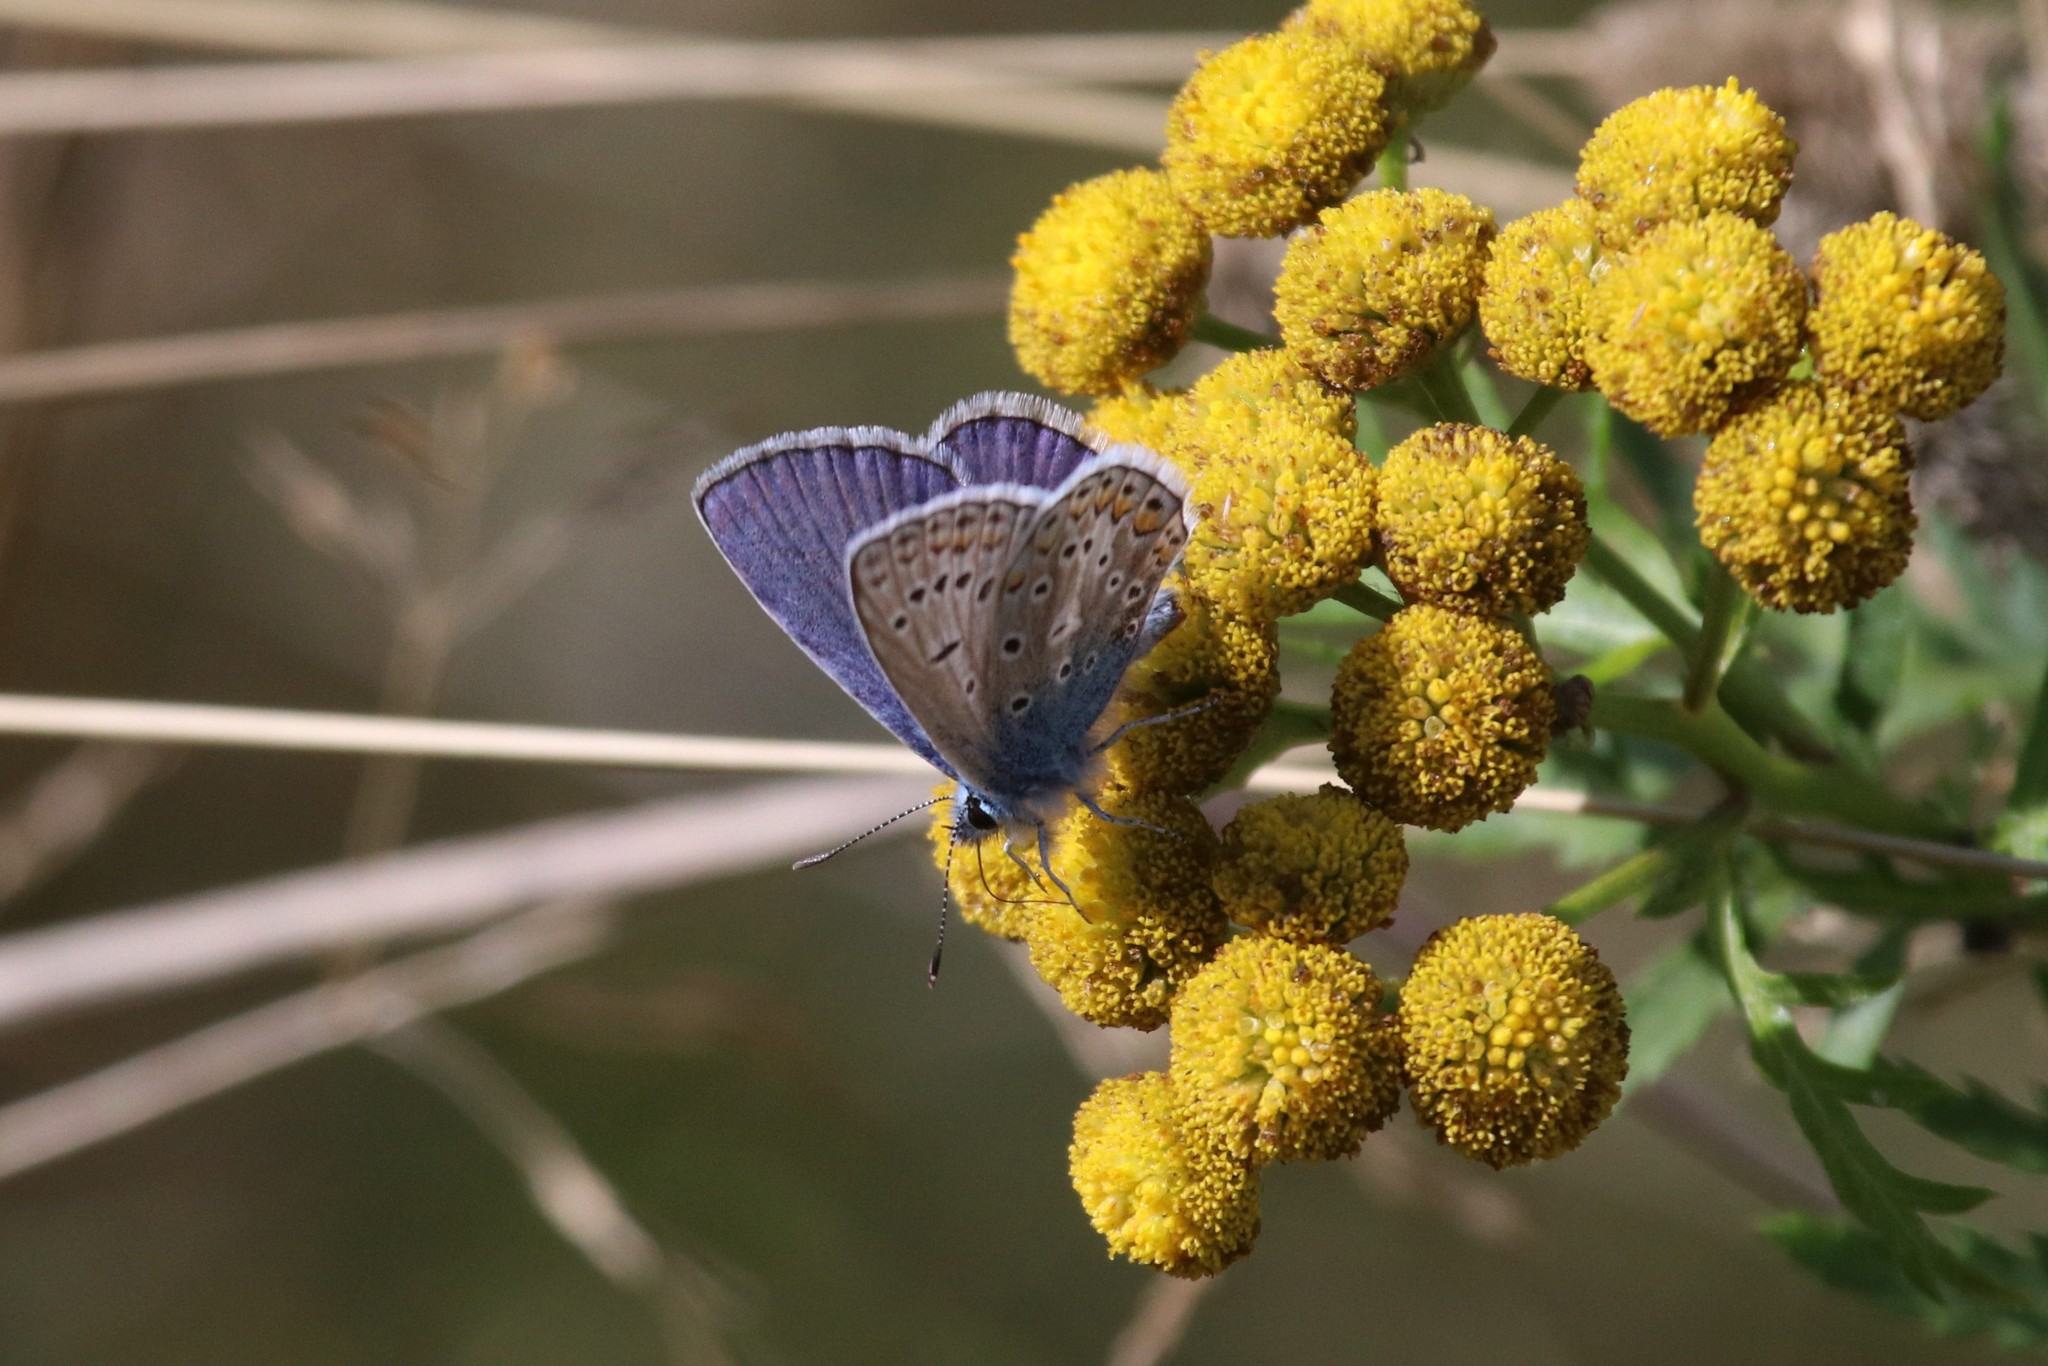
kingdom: Animalia
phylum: Arthropoda
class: Insecta
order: Lepidoptera
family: Lycaenidae
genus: Polyommatus
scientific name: Polyommatus icarus
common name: Common blue
